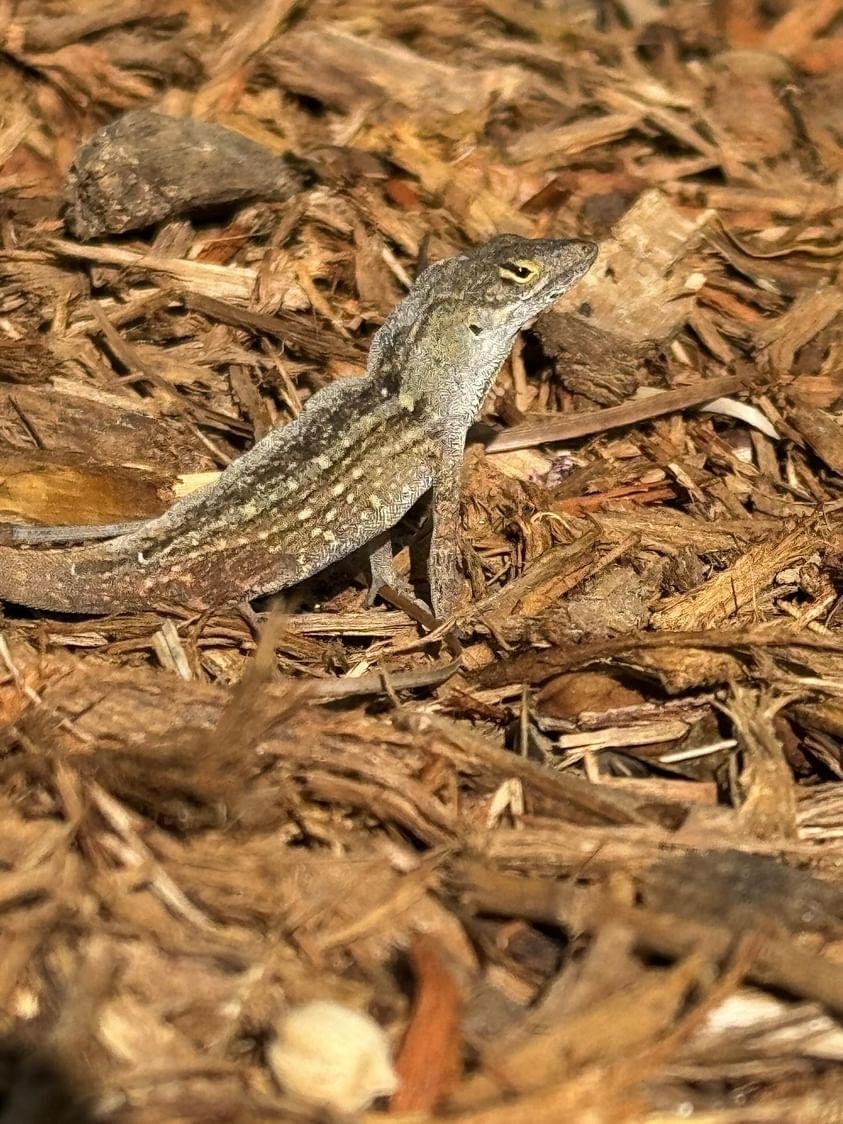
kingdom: Animalia
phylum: Chordata
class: Squamata
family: Dactyloidae
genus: Anolis
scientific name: Anolis sagrei
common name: Brown anole
